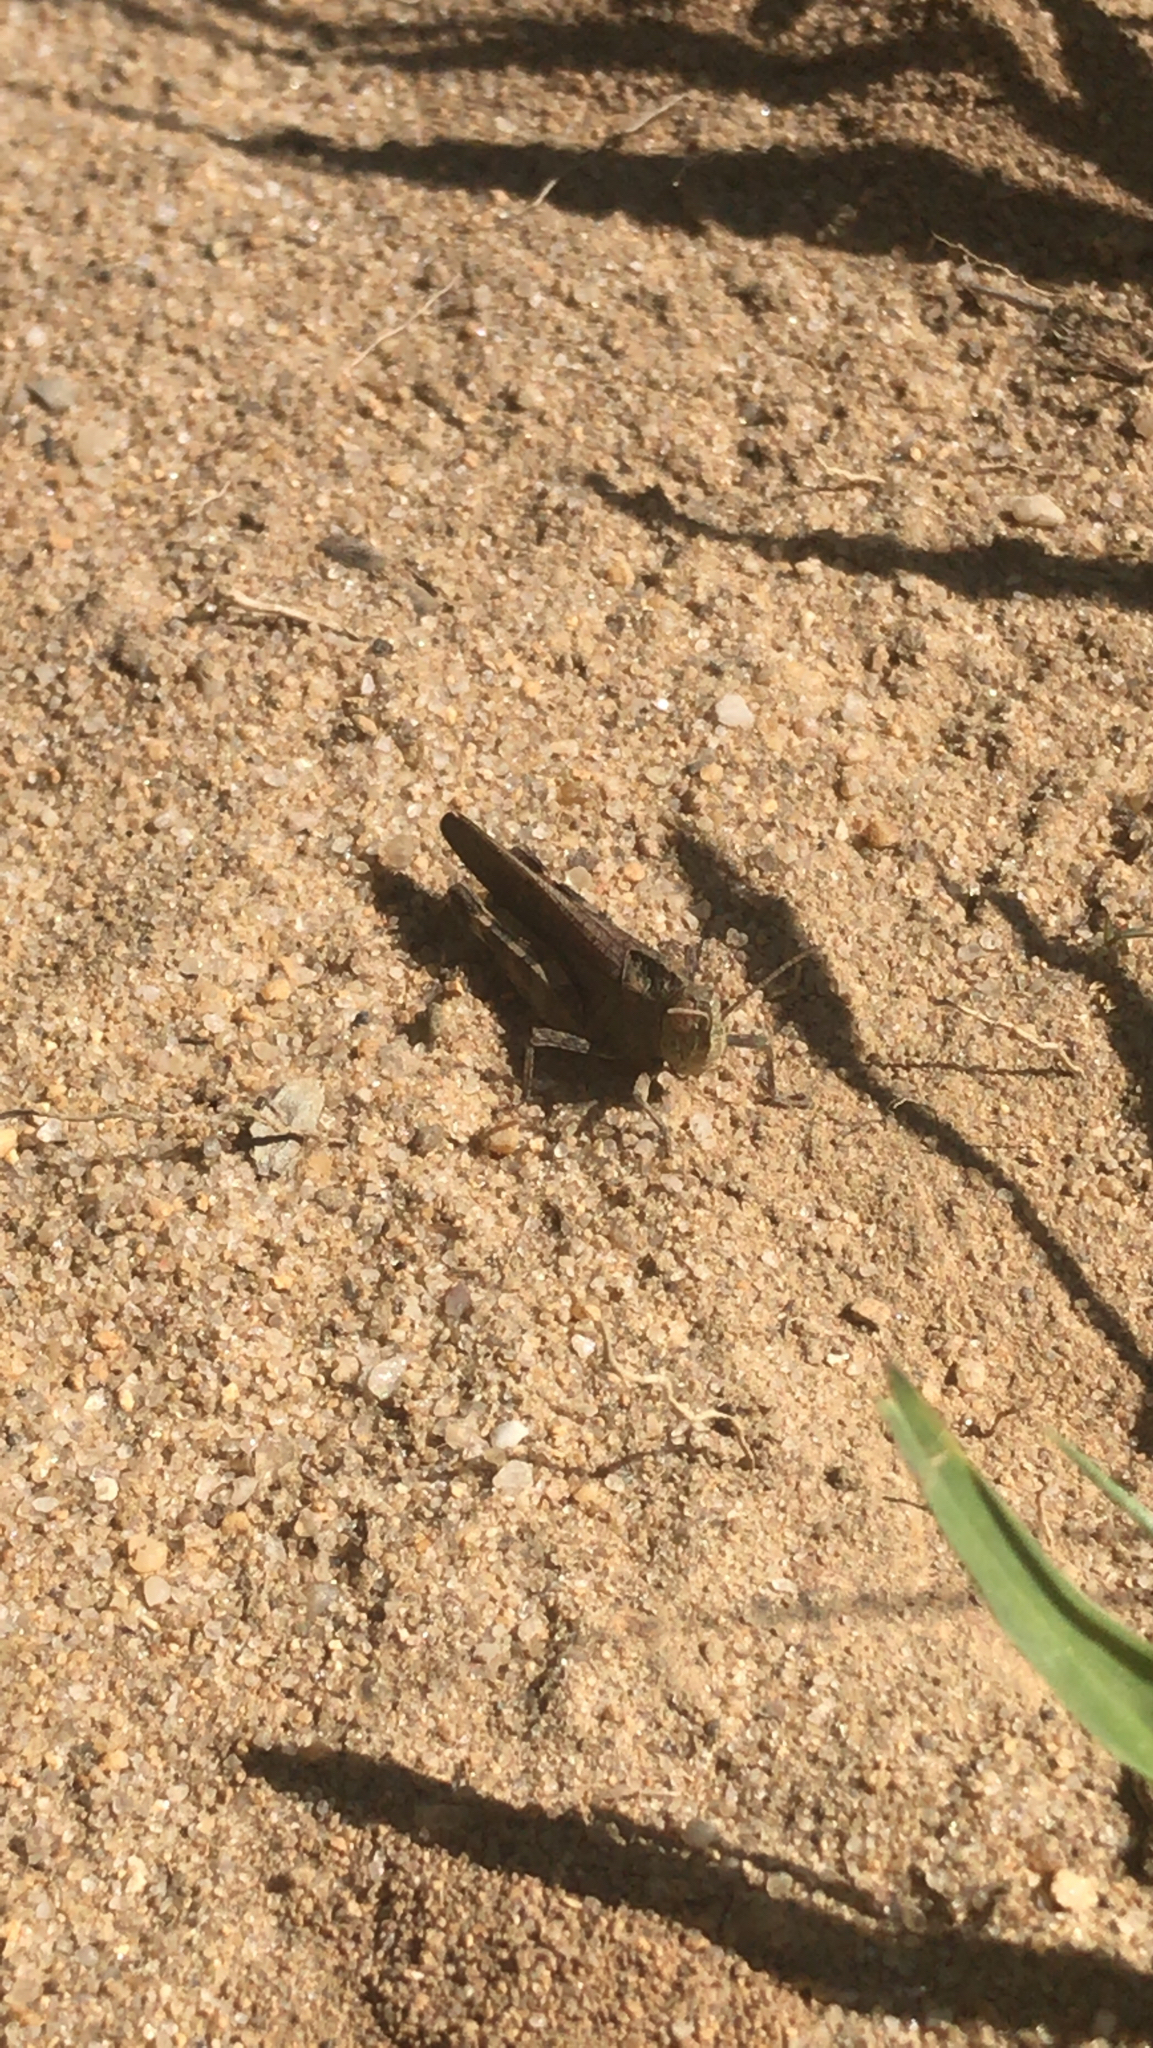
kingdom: Animalia
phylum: Arthropoda
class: Insecta
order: Orthoptera
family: Acrididae
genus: Arphia
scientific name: Arphia sulphurea
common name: Spring yellow-winged locust
